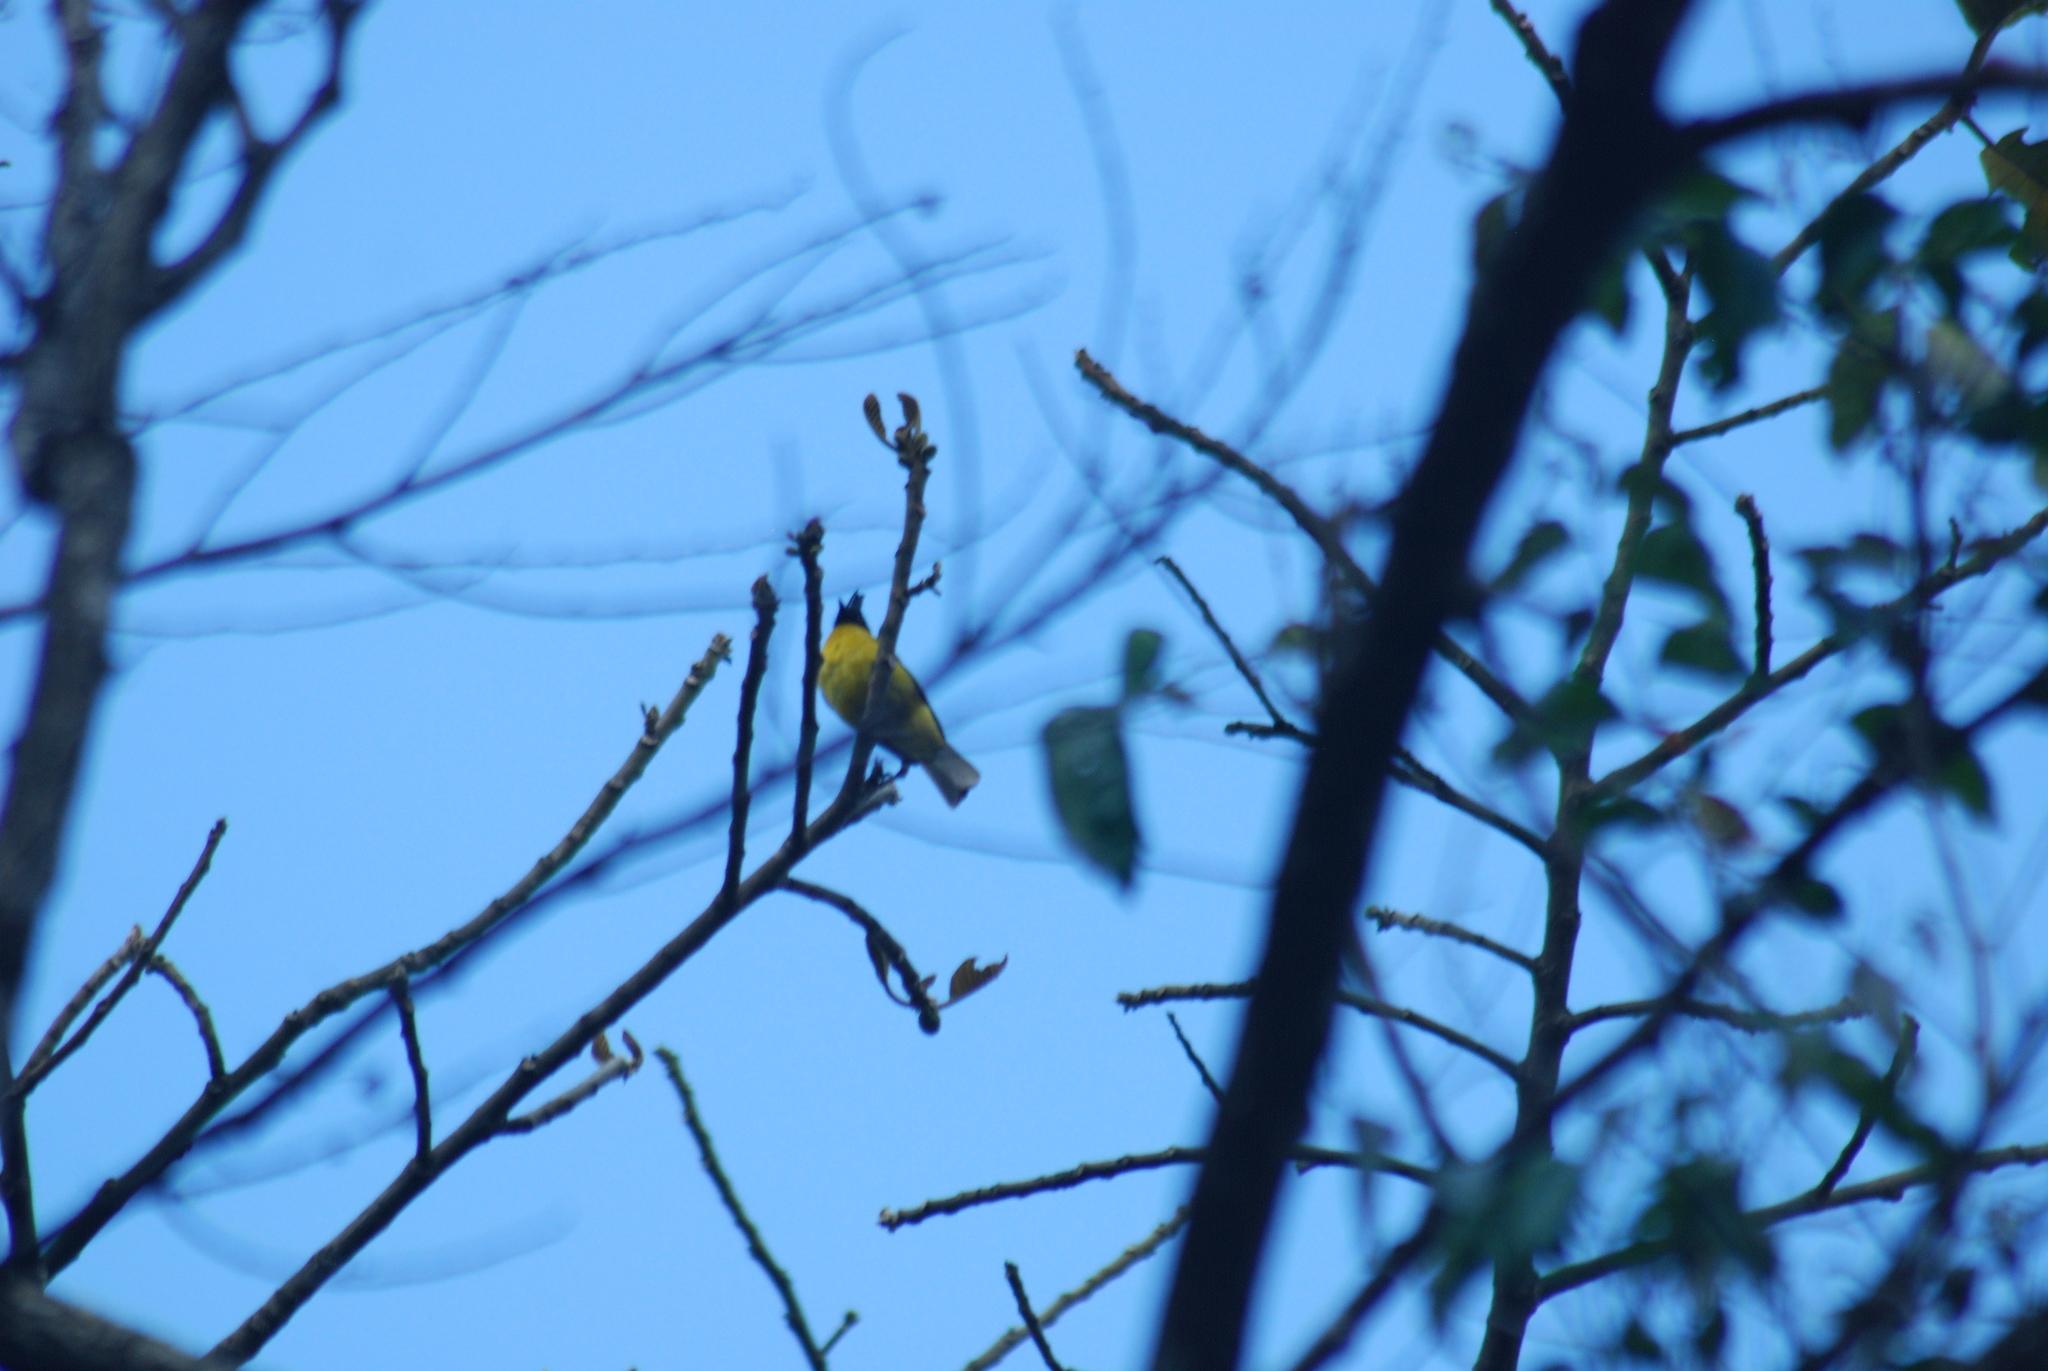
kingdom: Animalia
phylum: Chordata
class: Aves
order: Passeriformes
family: Pycnonotidae
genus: Pycnonotus
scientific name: Pycnonotus flaviventris
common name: Black-crested bulbul
